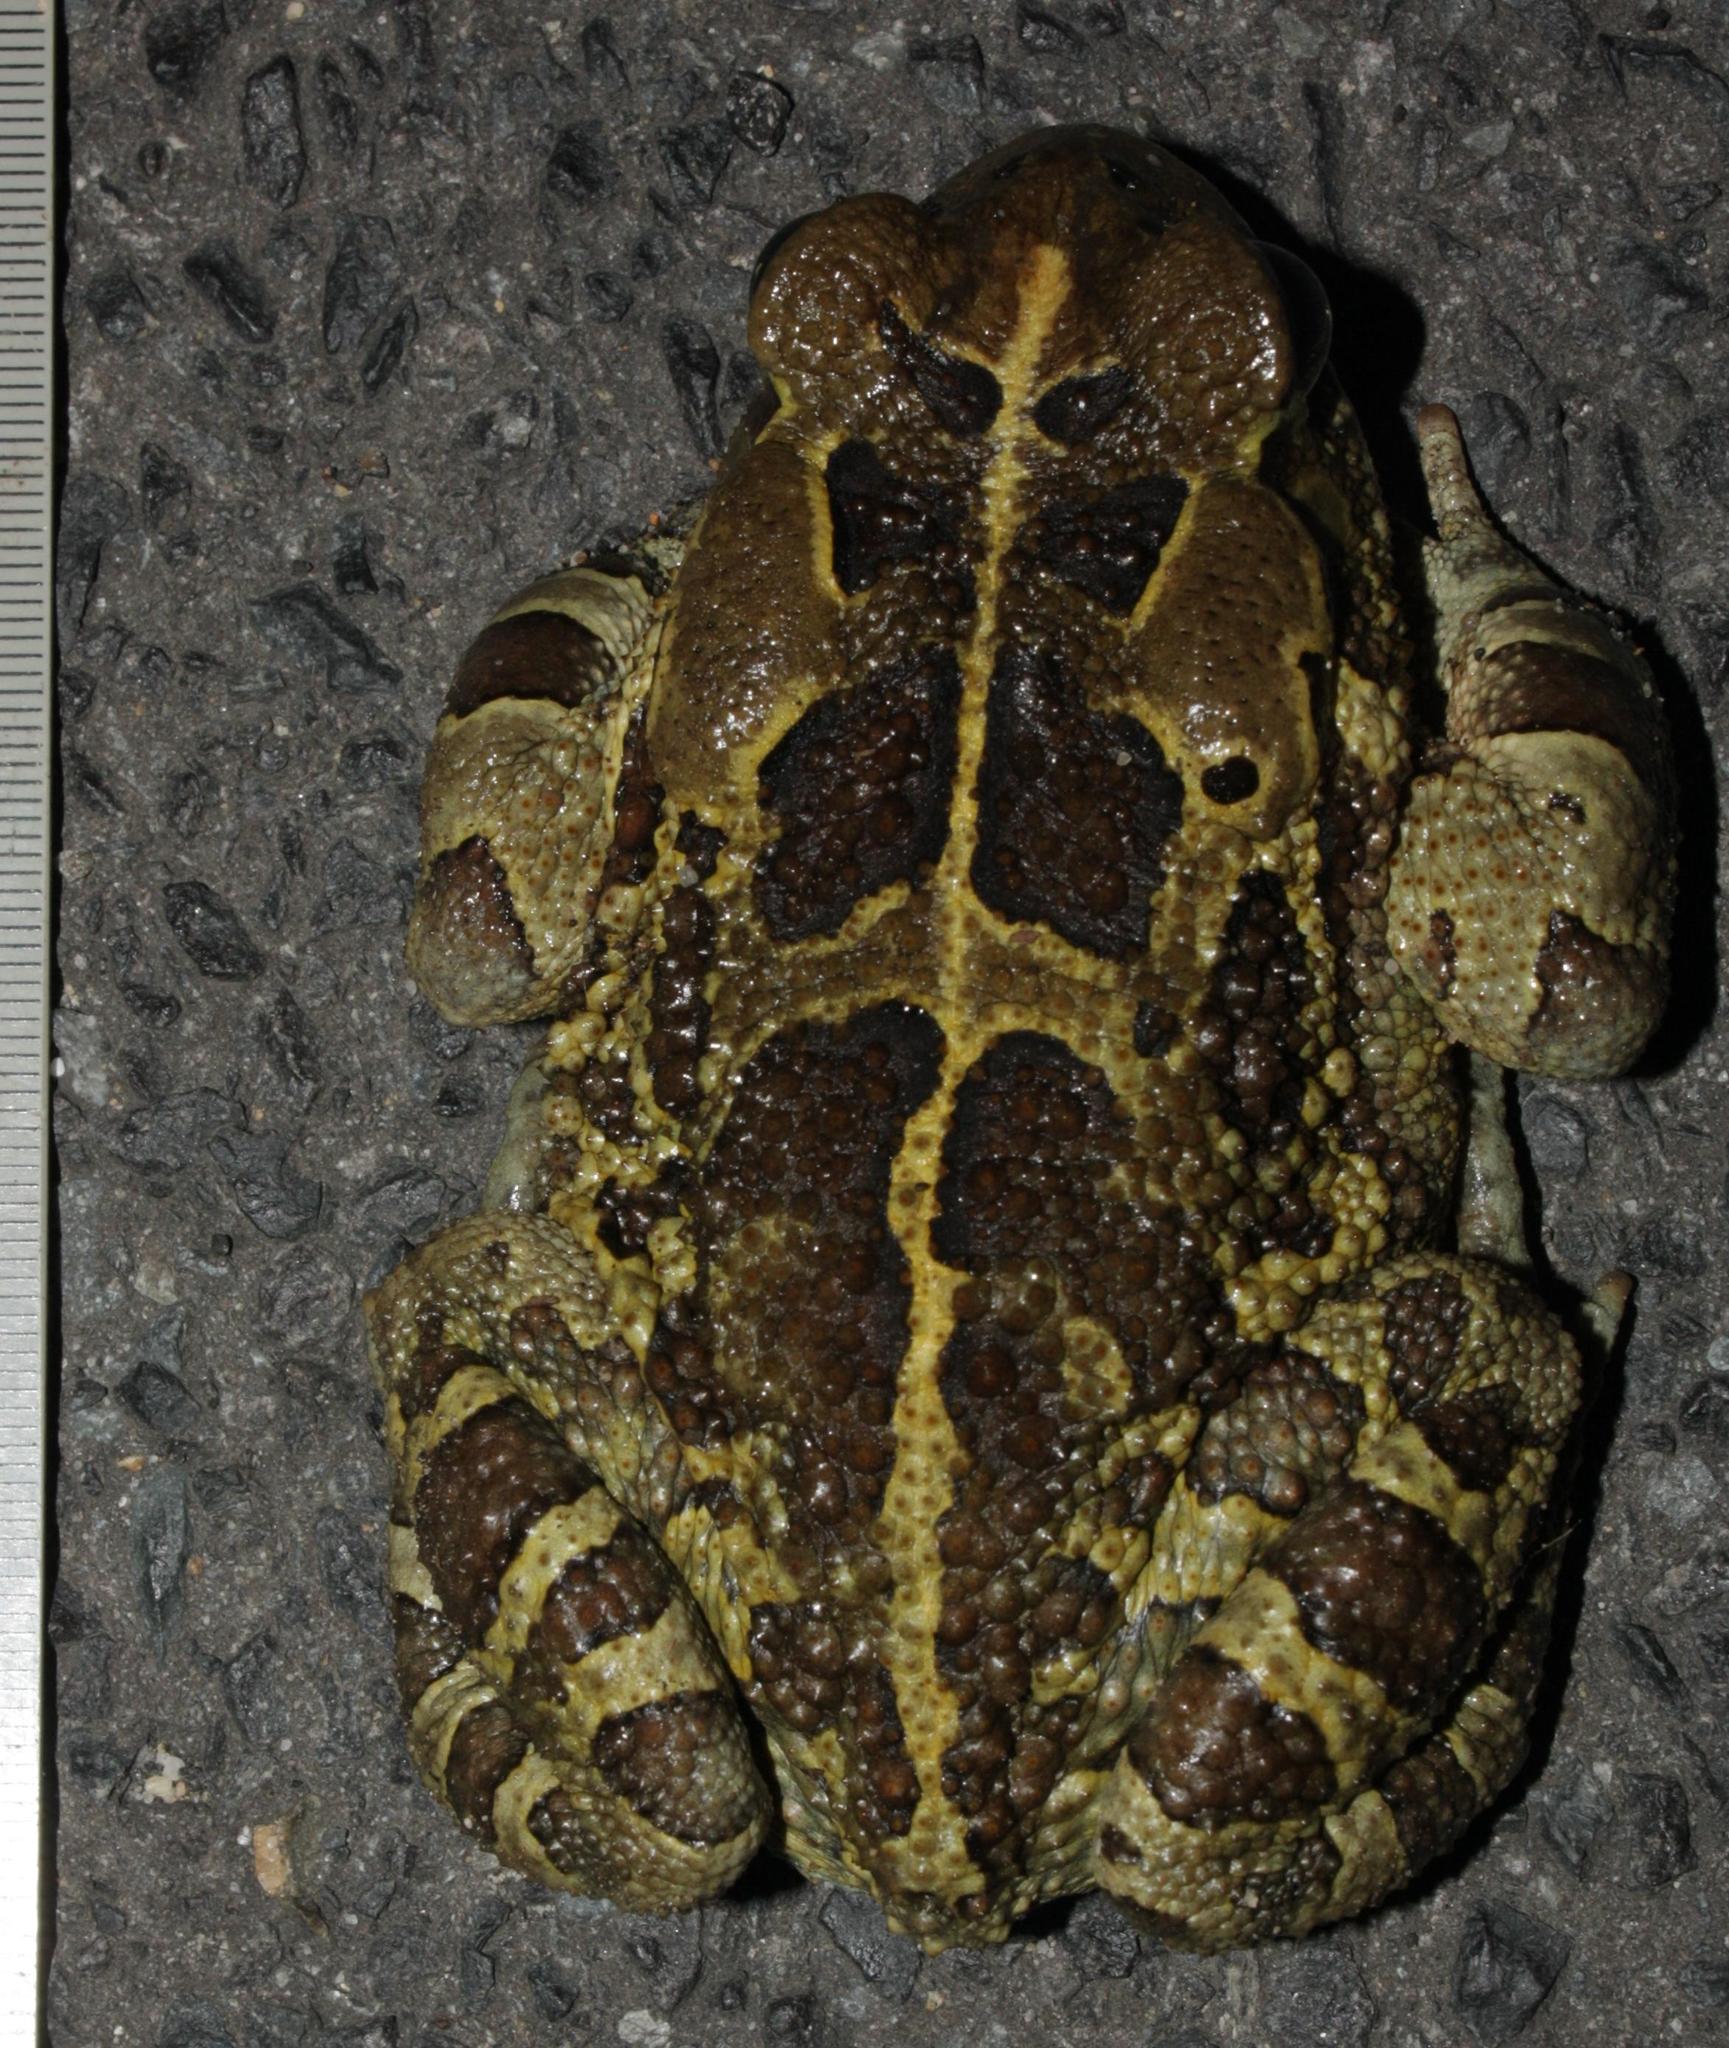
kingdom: Animalia
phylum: Chordata
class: Amphibia
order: Anura
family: Bufonidae
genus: Sclerophrys
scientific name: Sclerophrys pantherina
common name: Panther toad
